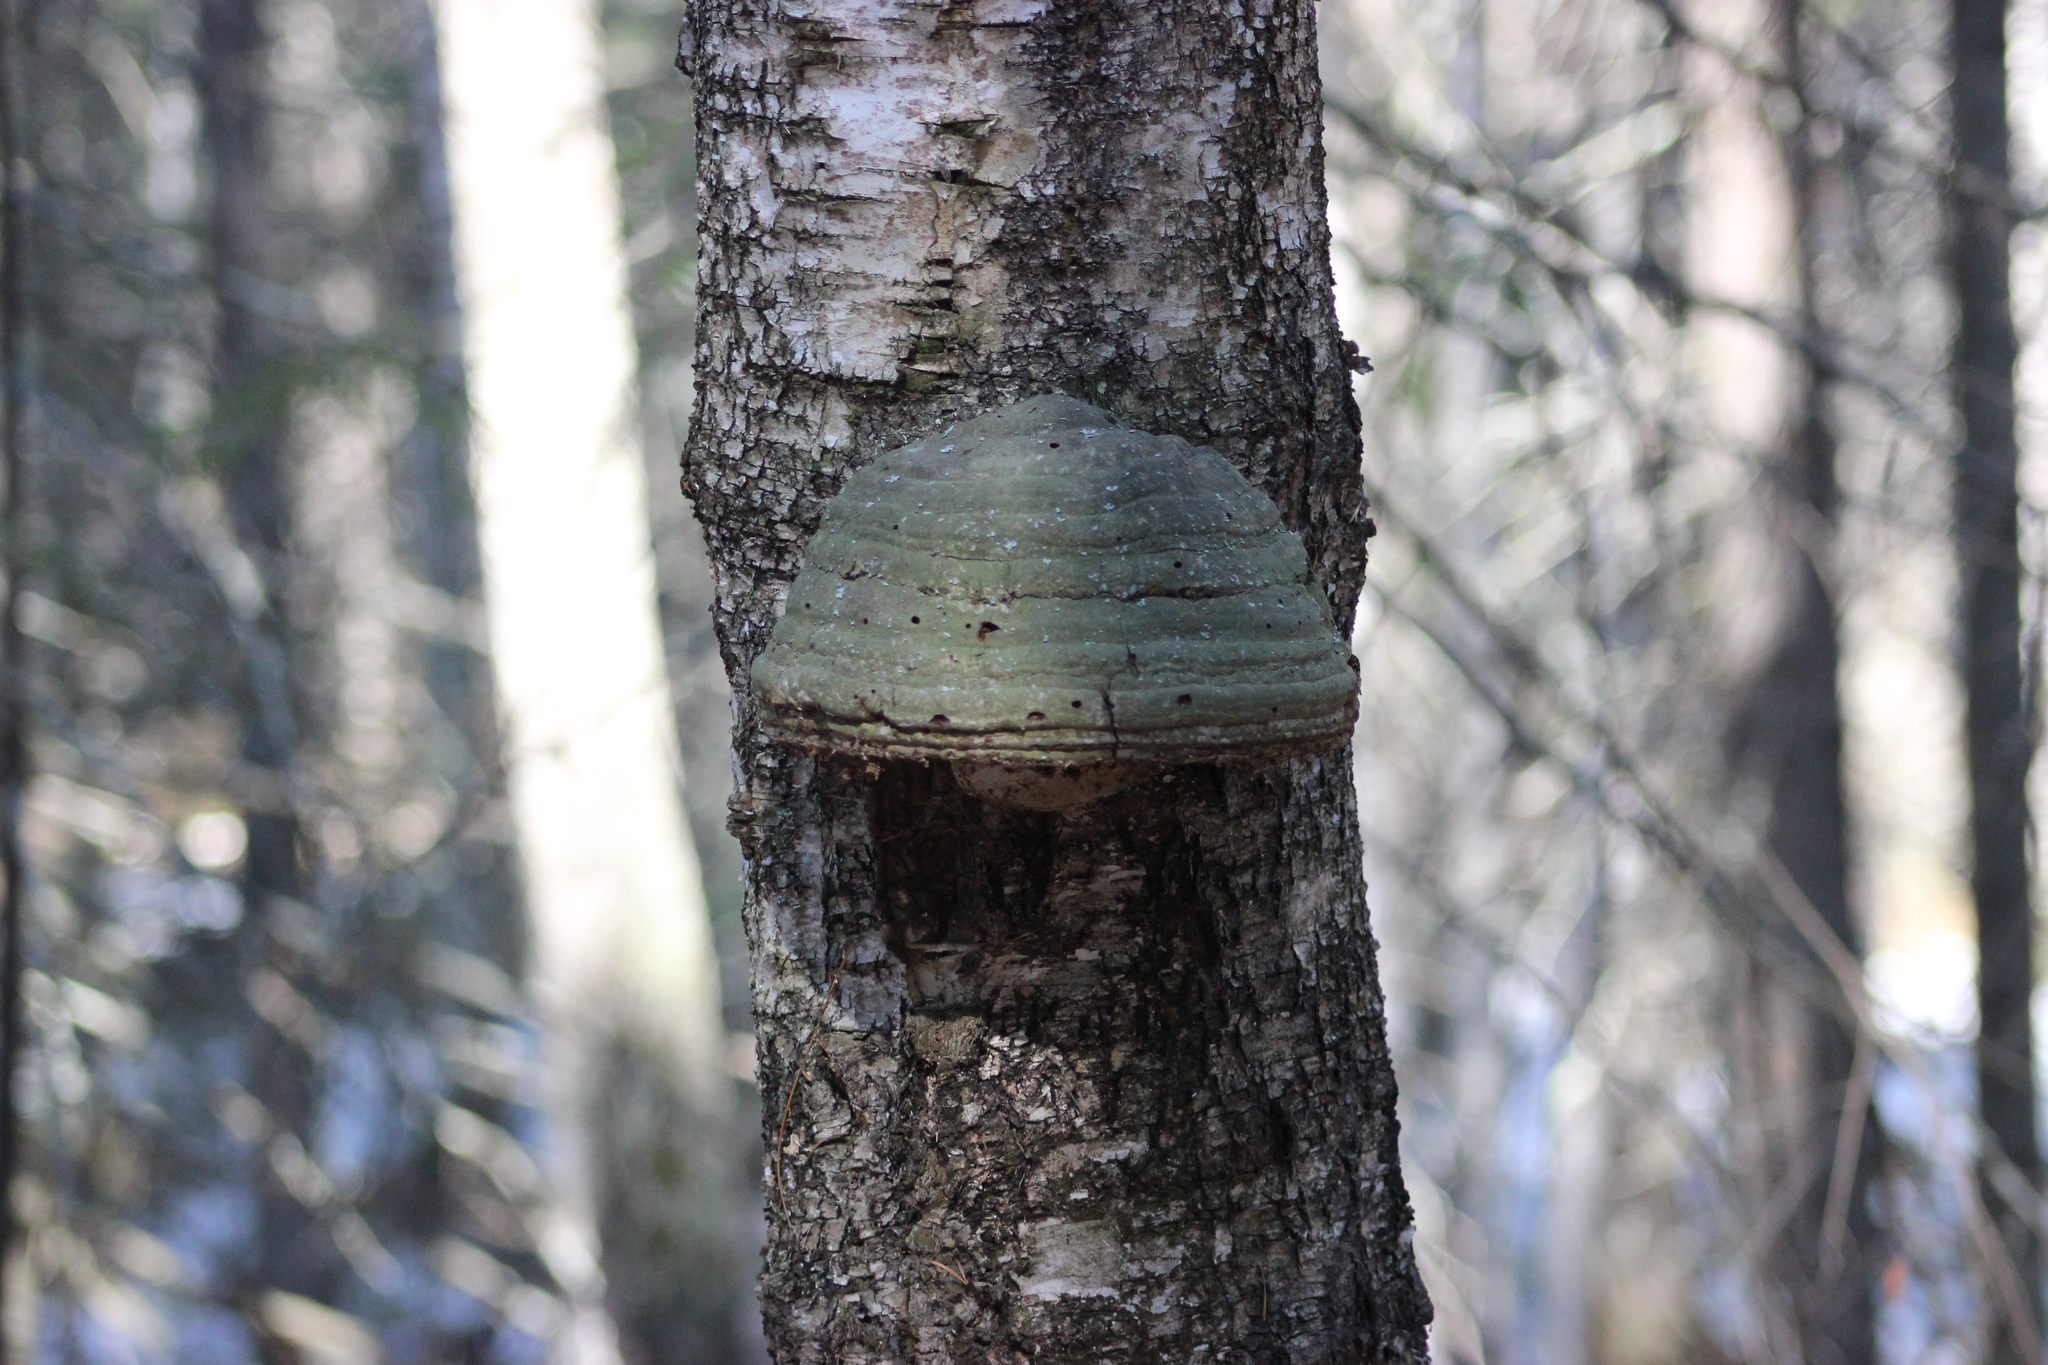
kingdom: Fungi
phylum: Basidiomycota
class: Agaricomycetes
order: Polyporales
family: Polyporaceae
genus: Fomes
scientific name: Fomes fomentarius
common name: Hoof fungus
